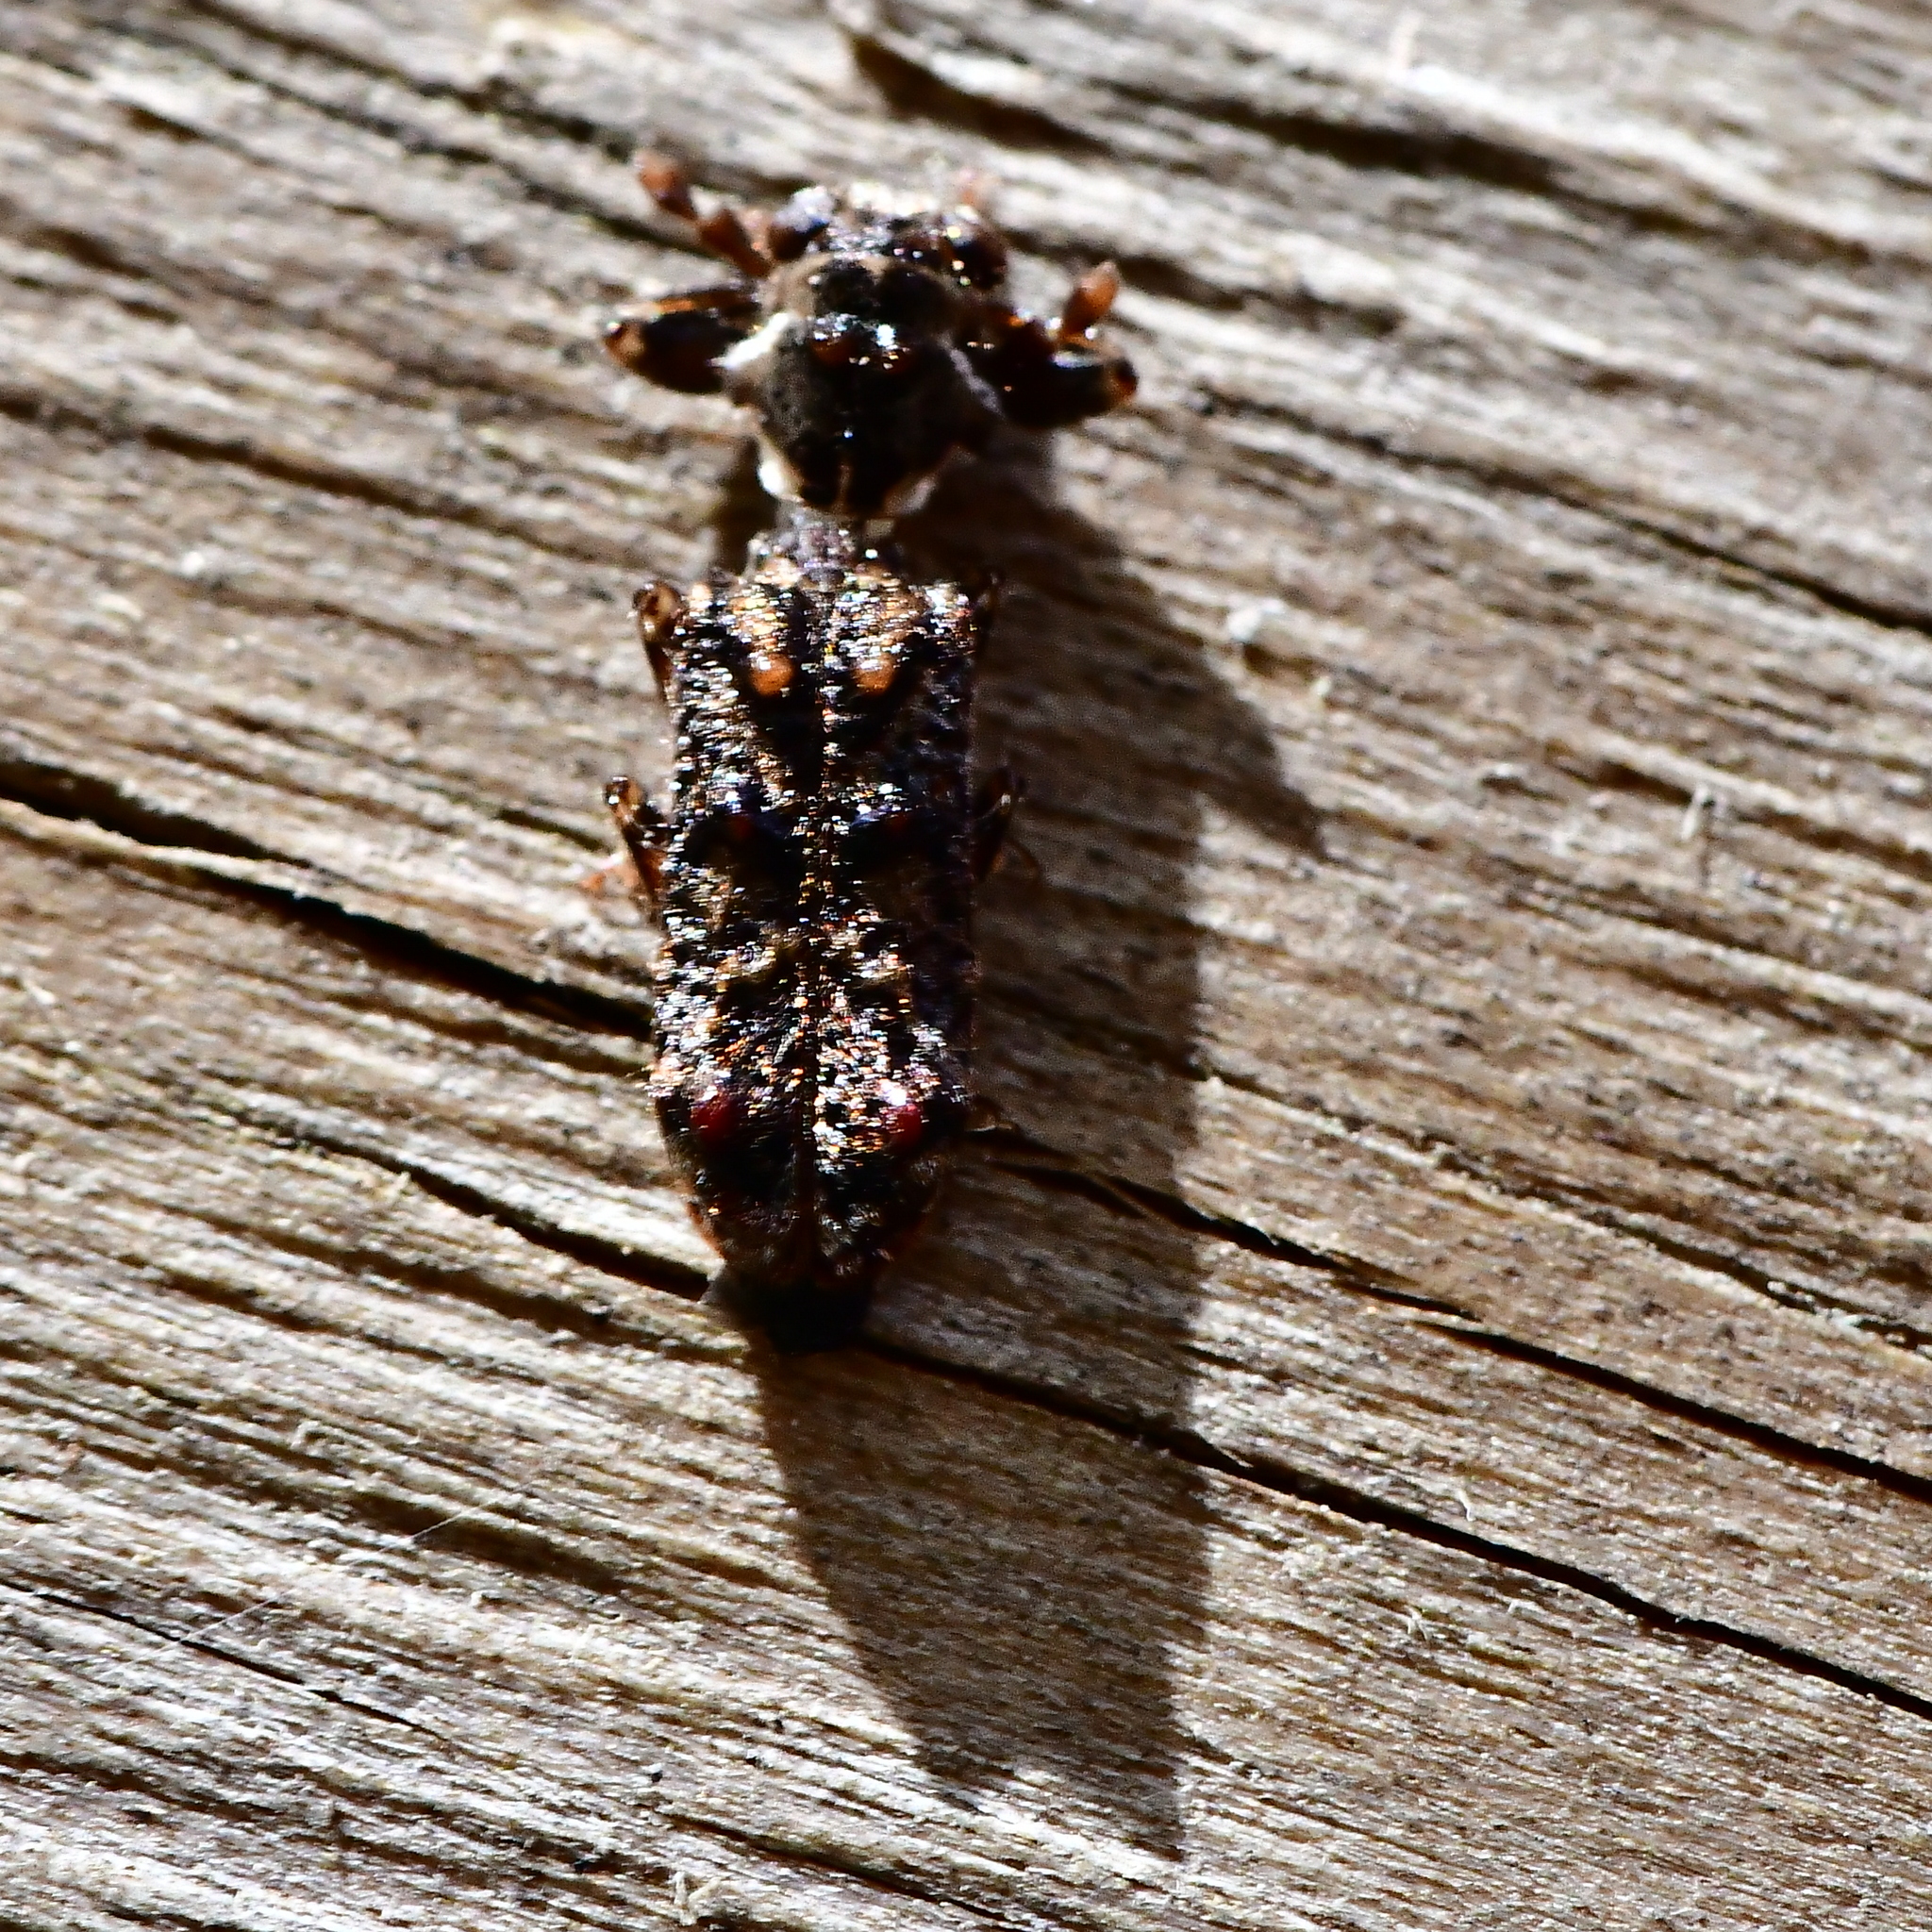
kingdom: Animalia
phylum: Arthropoda
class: Insecta
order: Coleoptera
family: Cleridae
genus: Phymatophaea
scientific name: Phymatophaea
